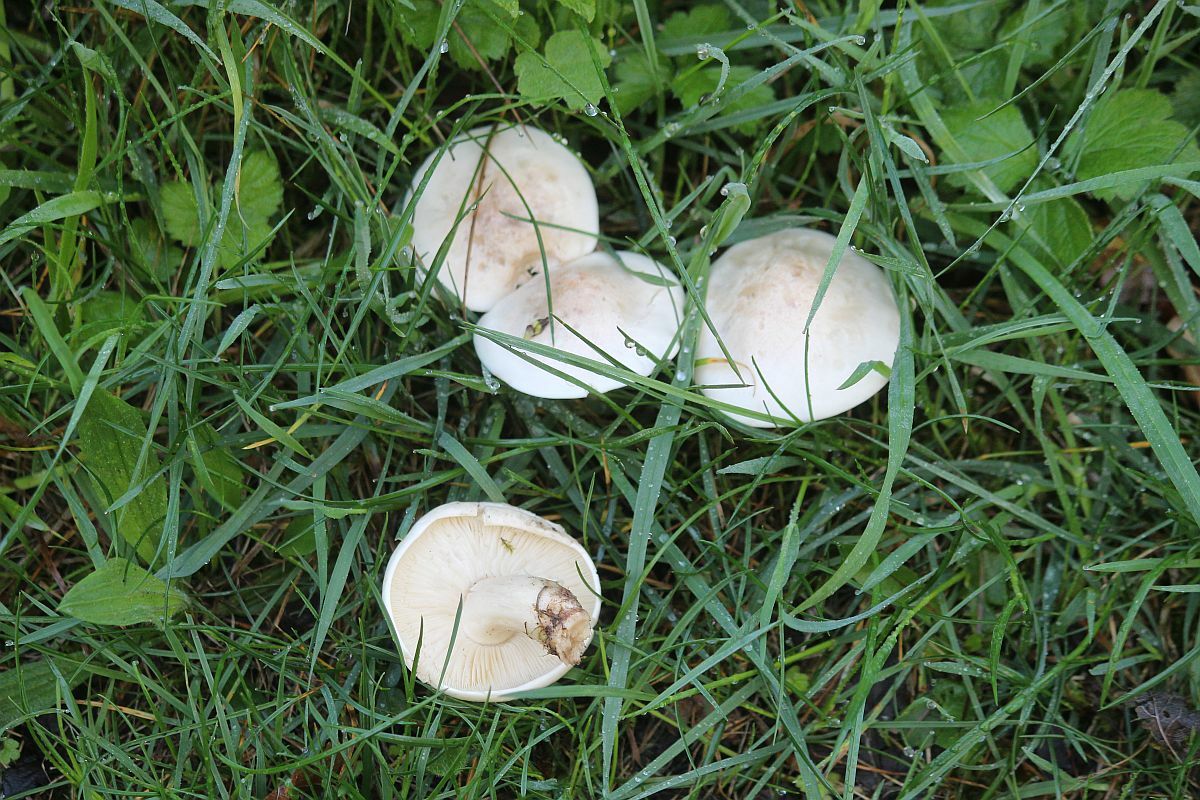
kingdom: Fungi
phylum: Basidiomycota
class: Agaricomycetes
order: Agaricales
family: Lyophyllaceae
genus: Calocybe
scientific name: Calocybe gambosa
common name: St. george's mushroom
